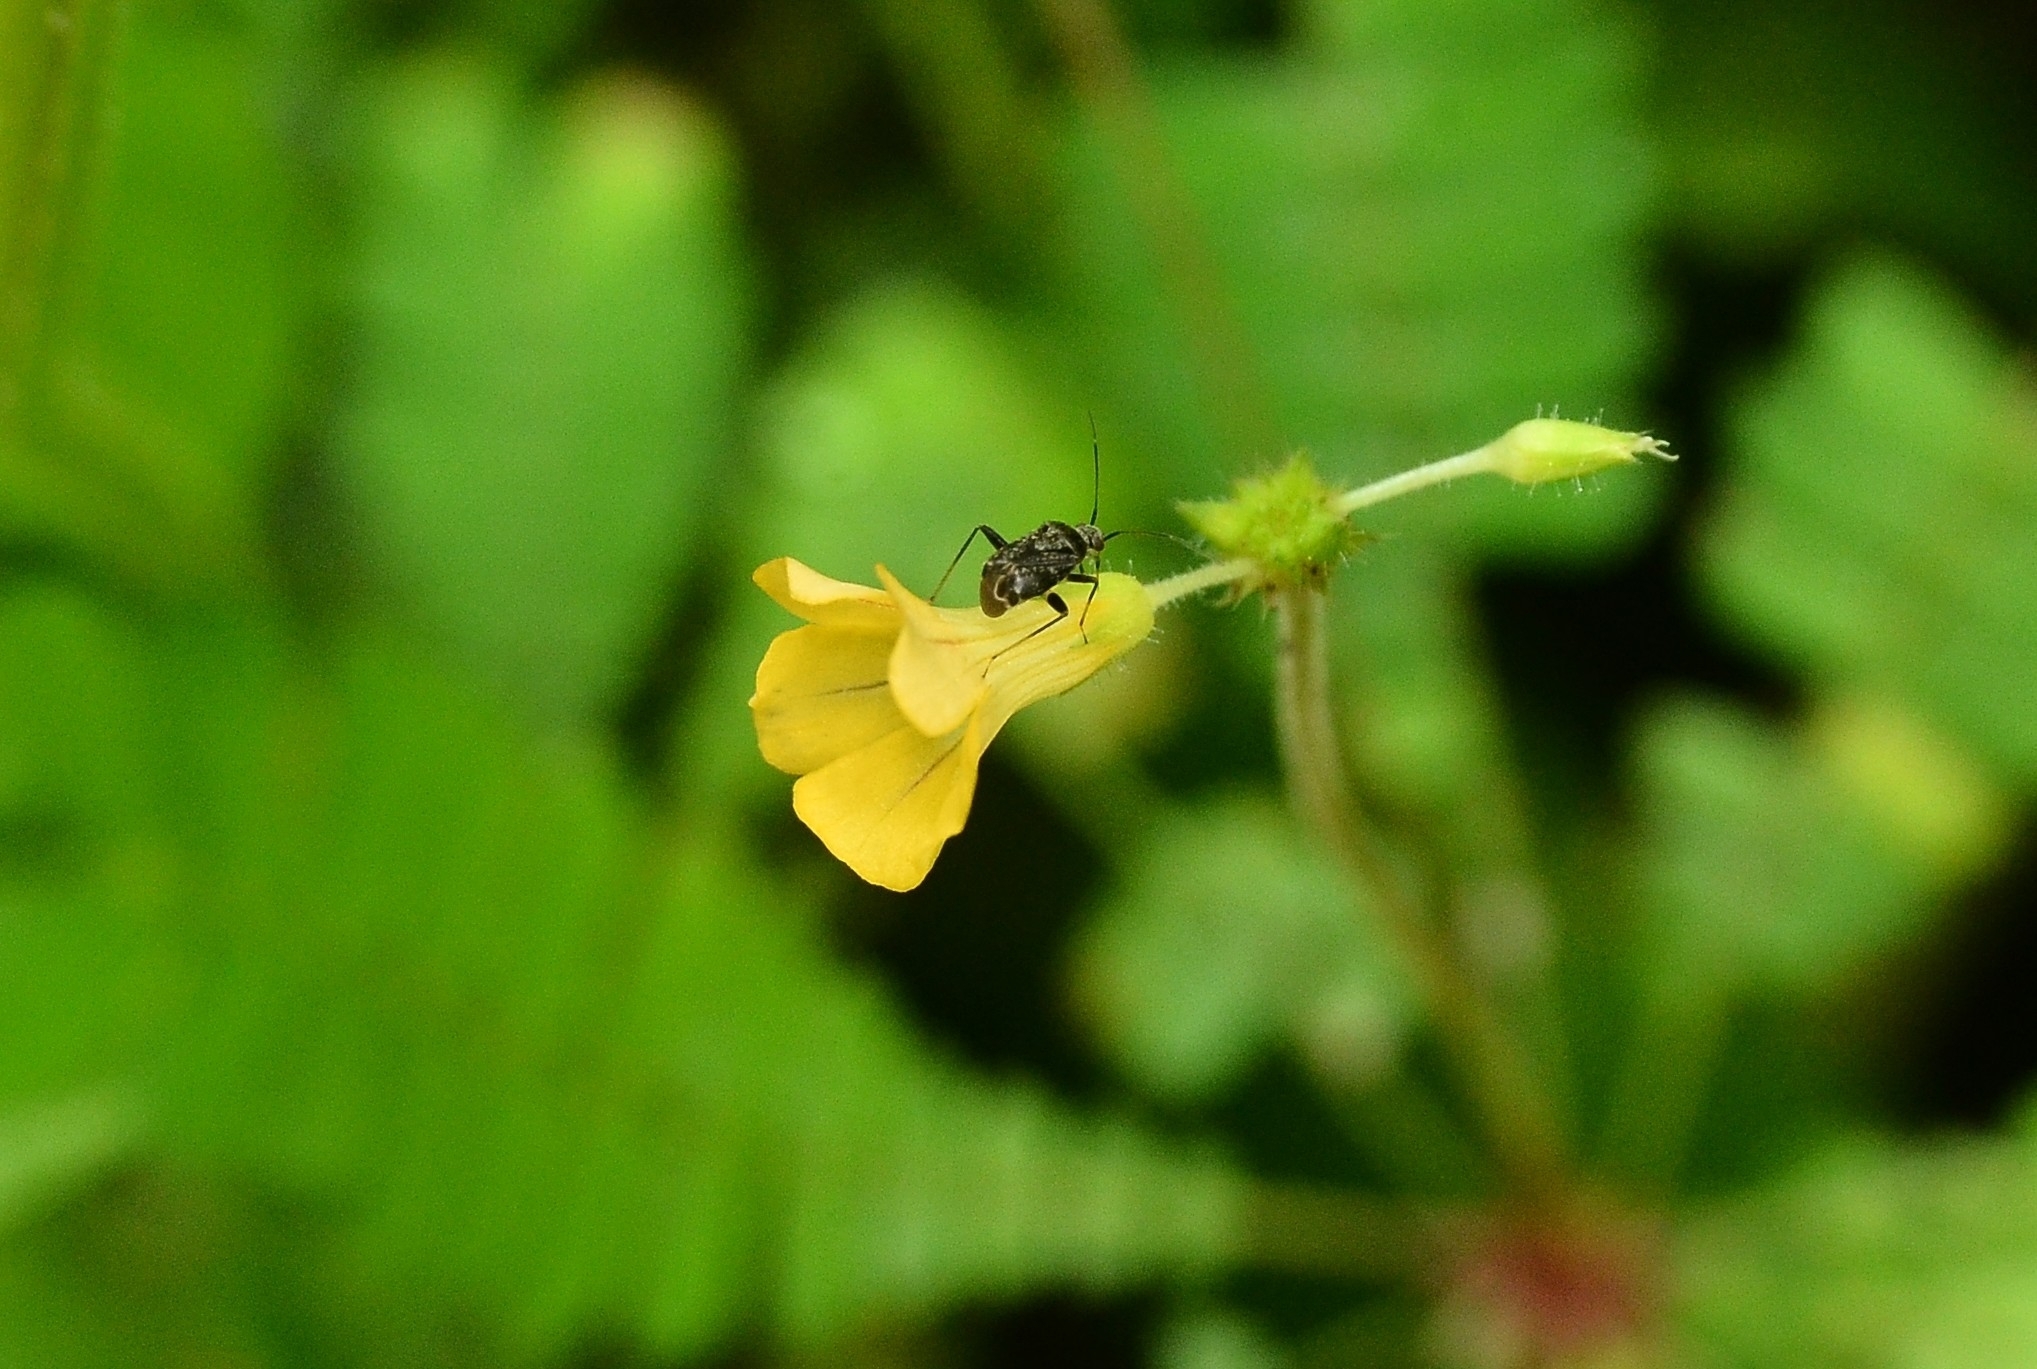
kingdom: Plantae
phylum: Tracheophyta
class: Magnoliopsida
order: Oxalidales
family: Oxalidaceae
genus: Biophytum
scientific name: Biophytum sensitivum
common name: Lifeplant
